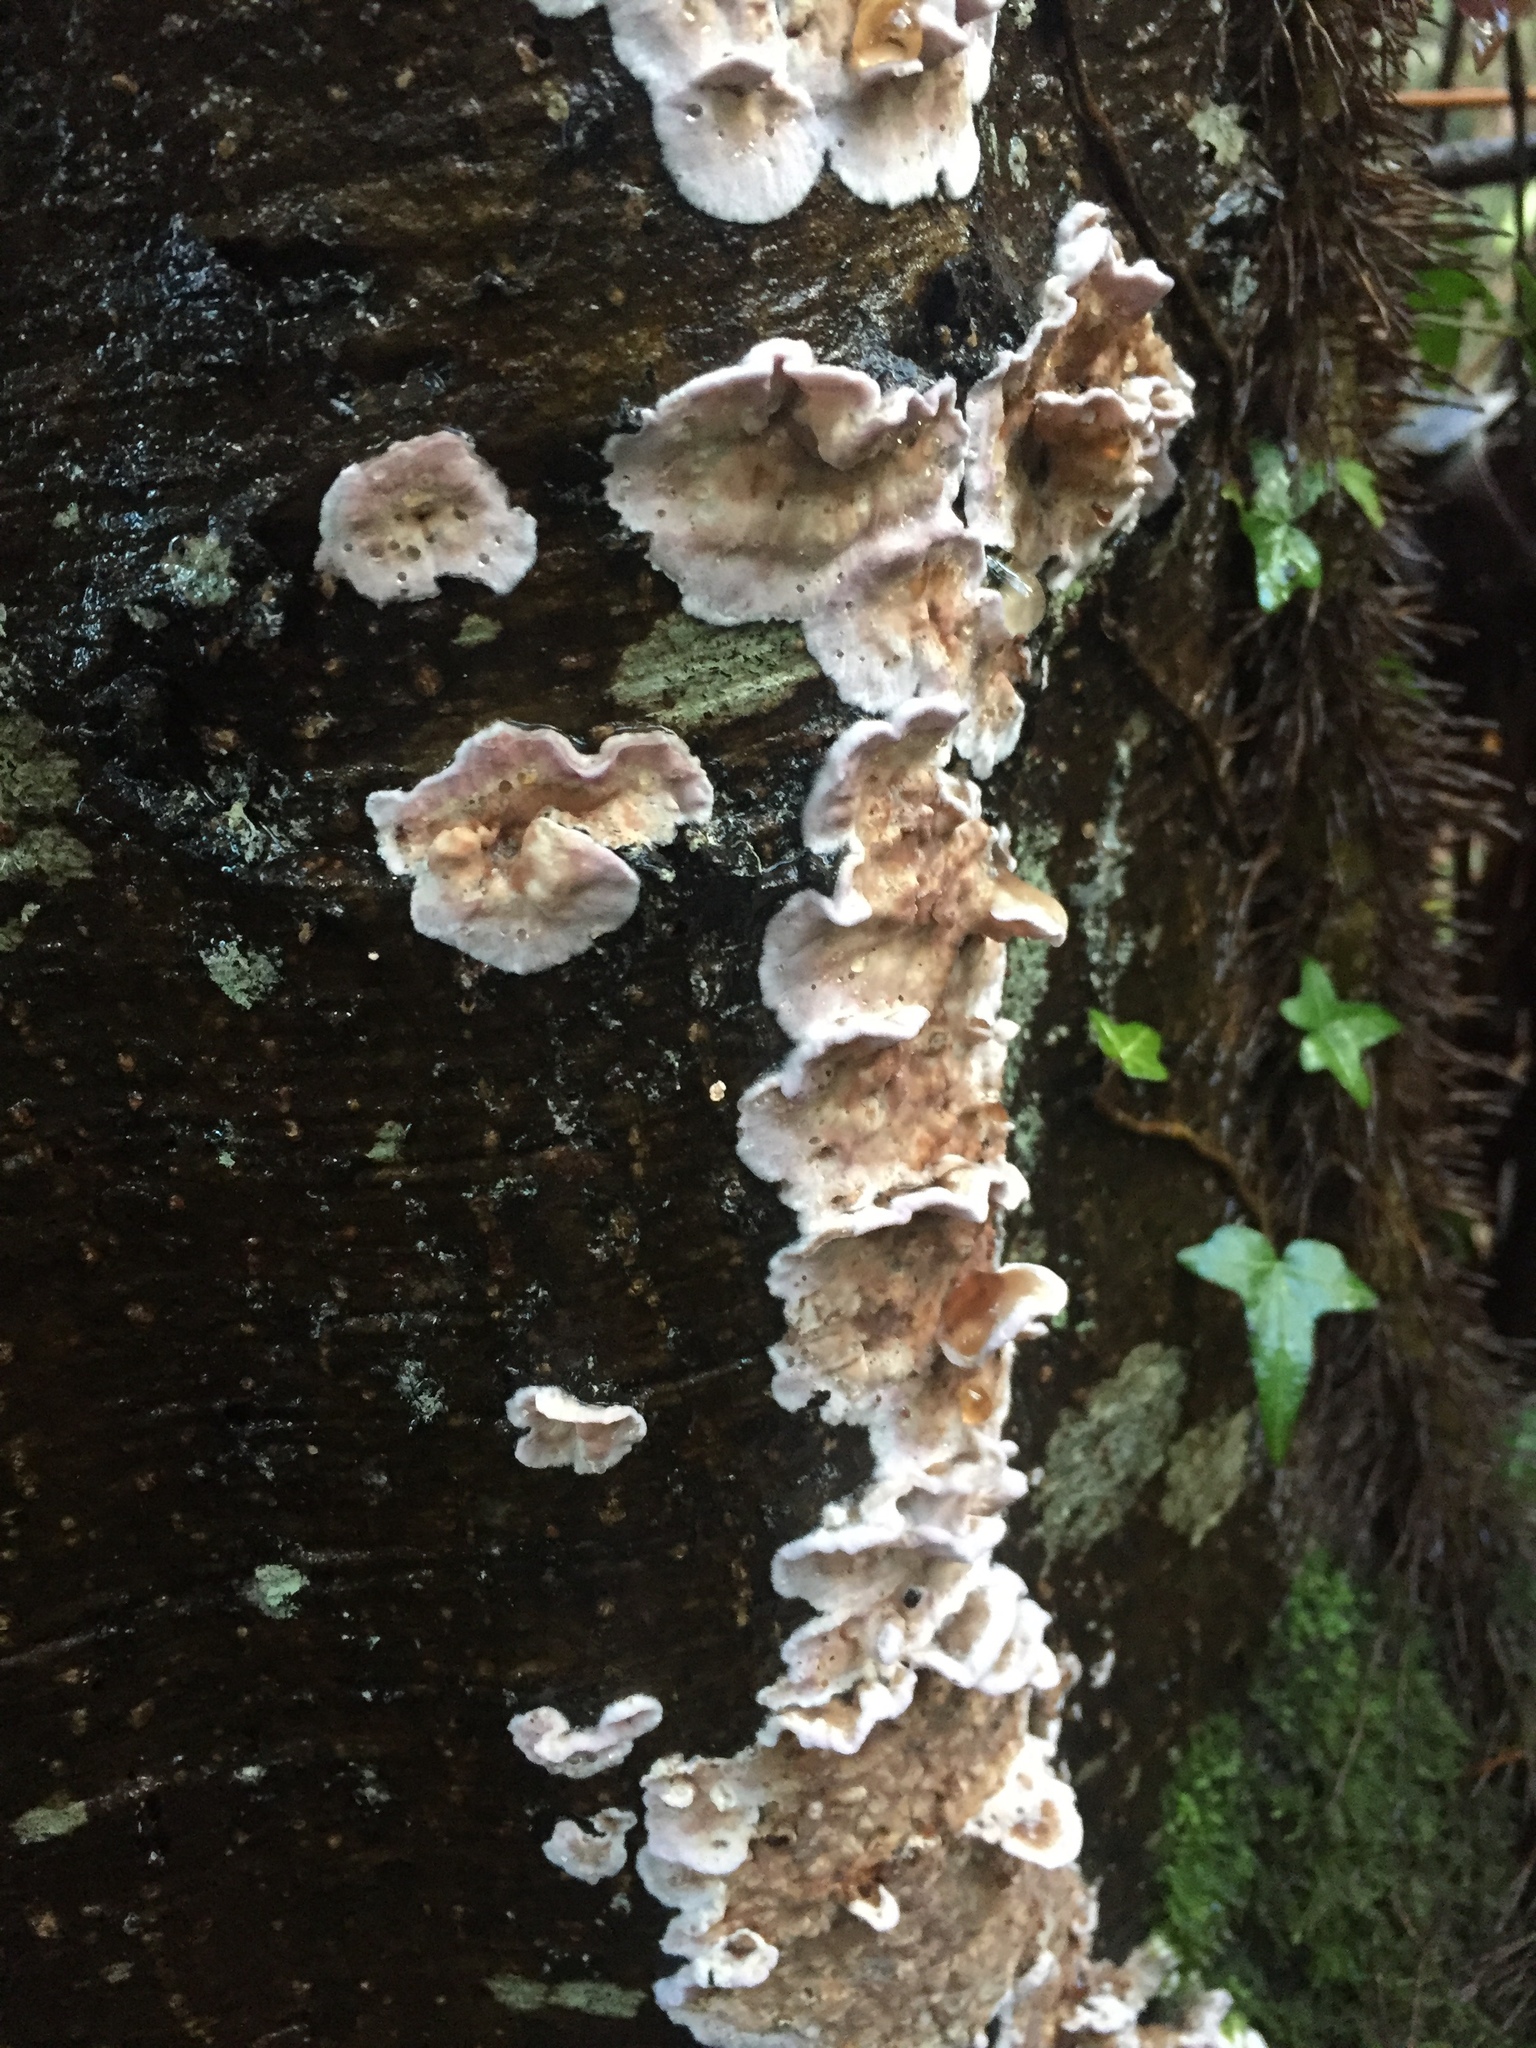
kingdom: Fungi
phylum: Basidiomycota
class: Agaricomycetes
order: Polyporales
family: Meruliaceae
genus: Phlebia
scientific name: Phlebia tremellosa
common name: Jelly rot
